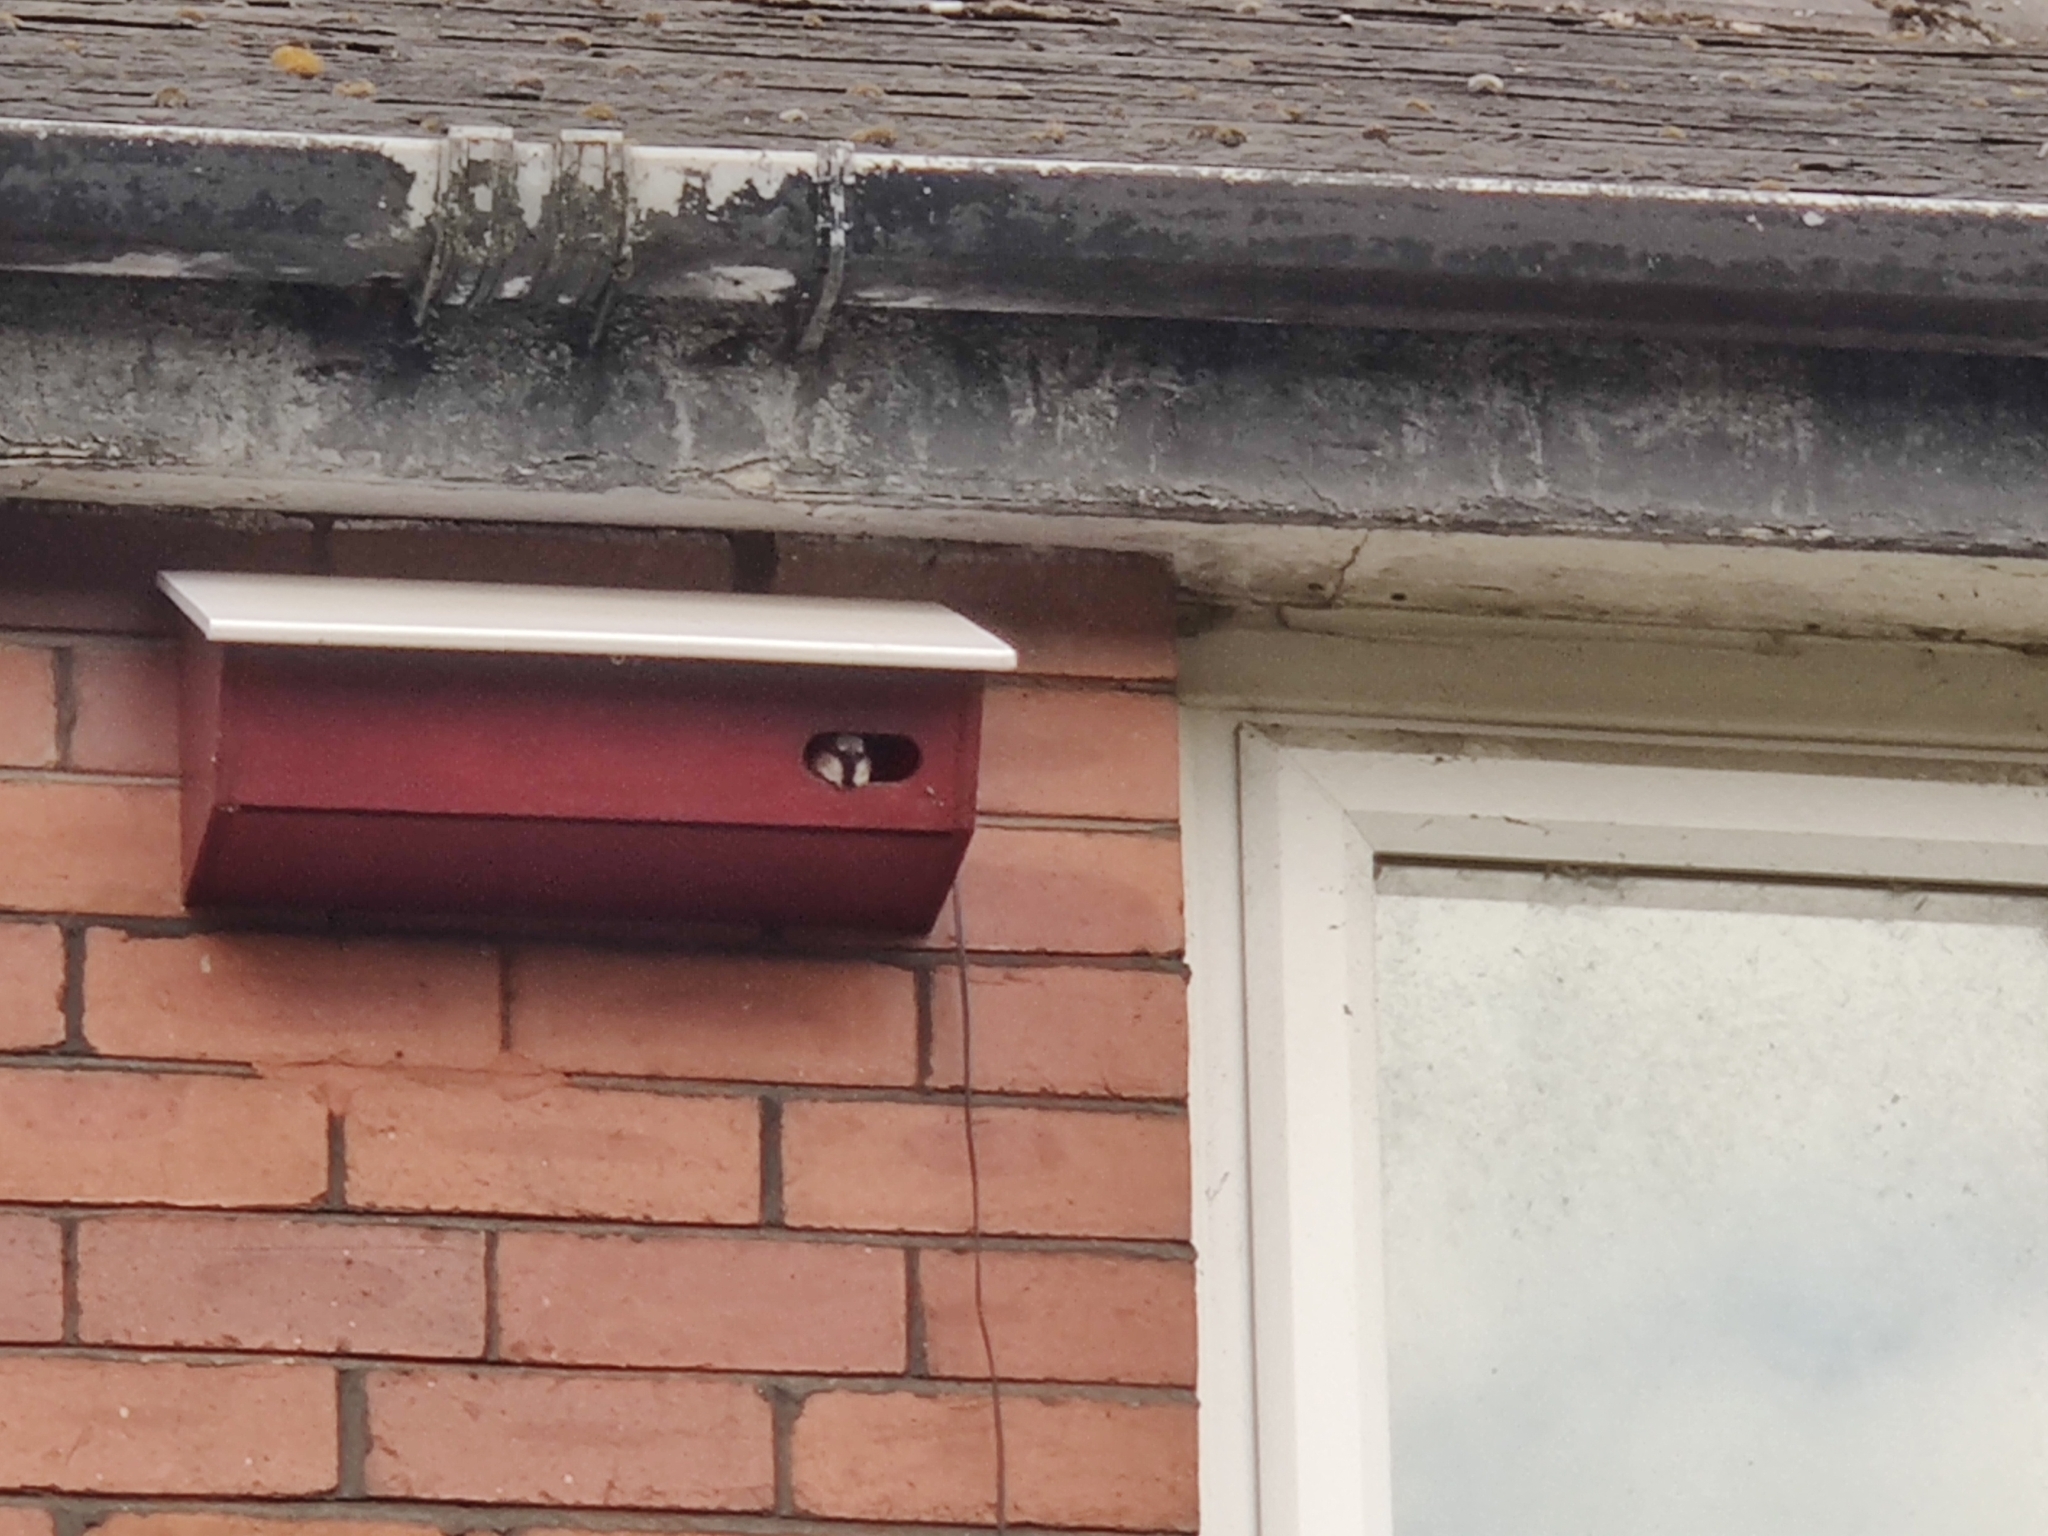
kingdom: Animalia
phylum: Chordata
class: Aves
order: Passeriformes
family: Passeridae
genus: Passer
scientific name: Passer domesticus
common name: House sparrow
